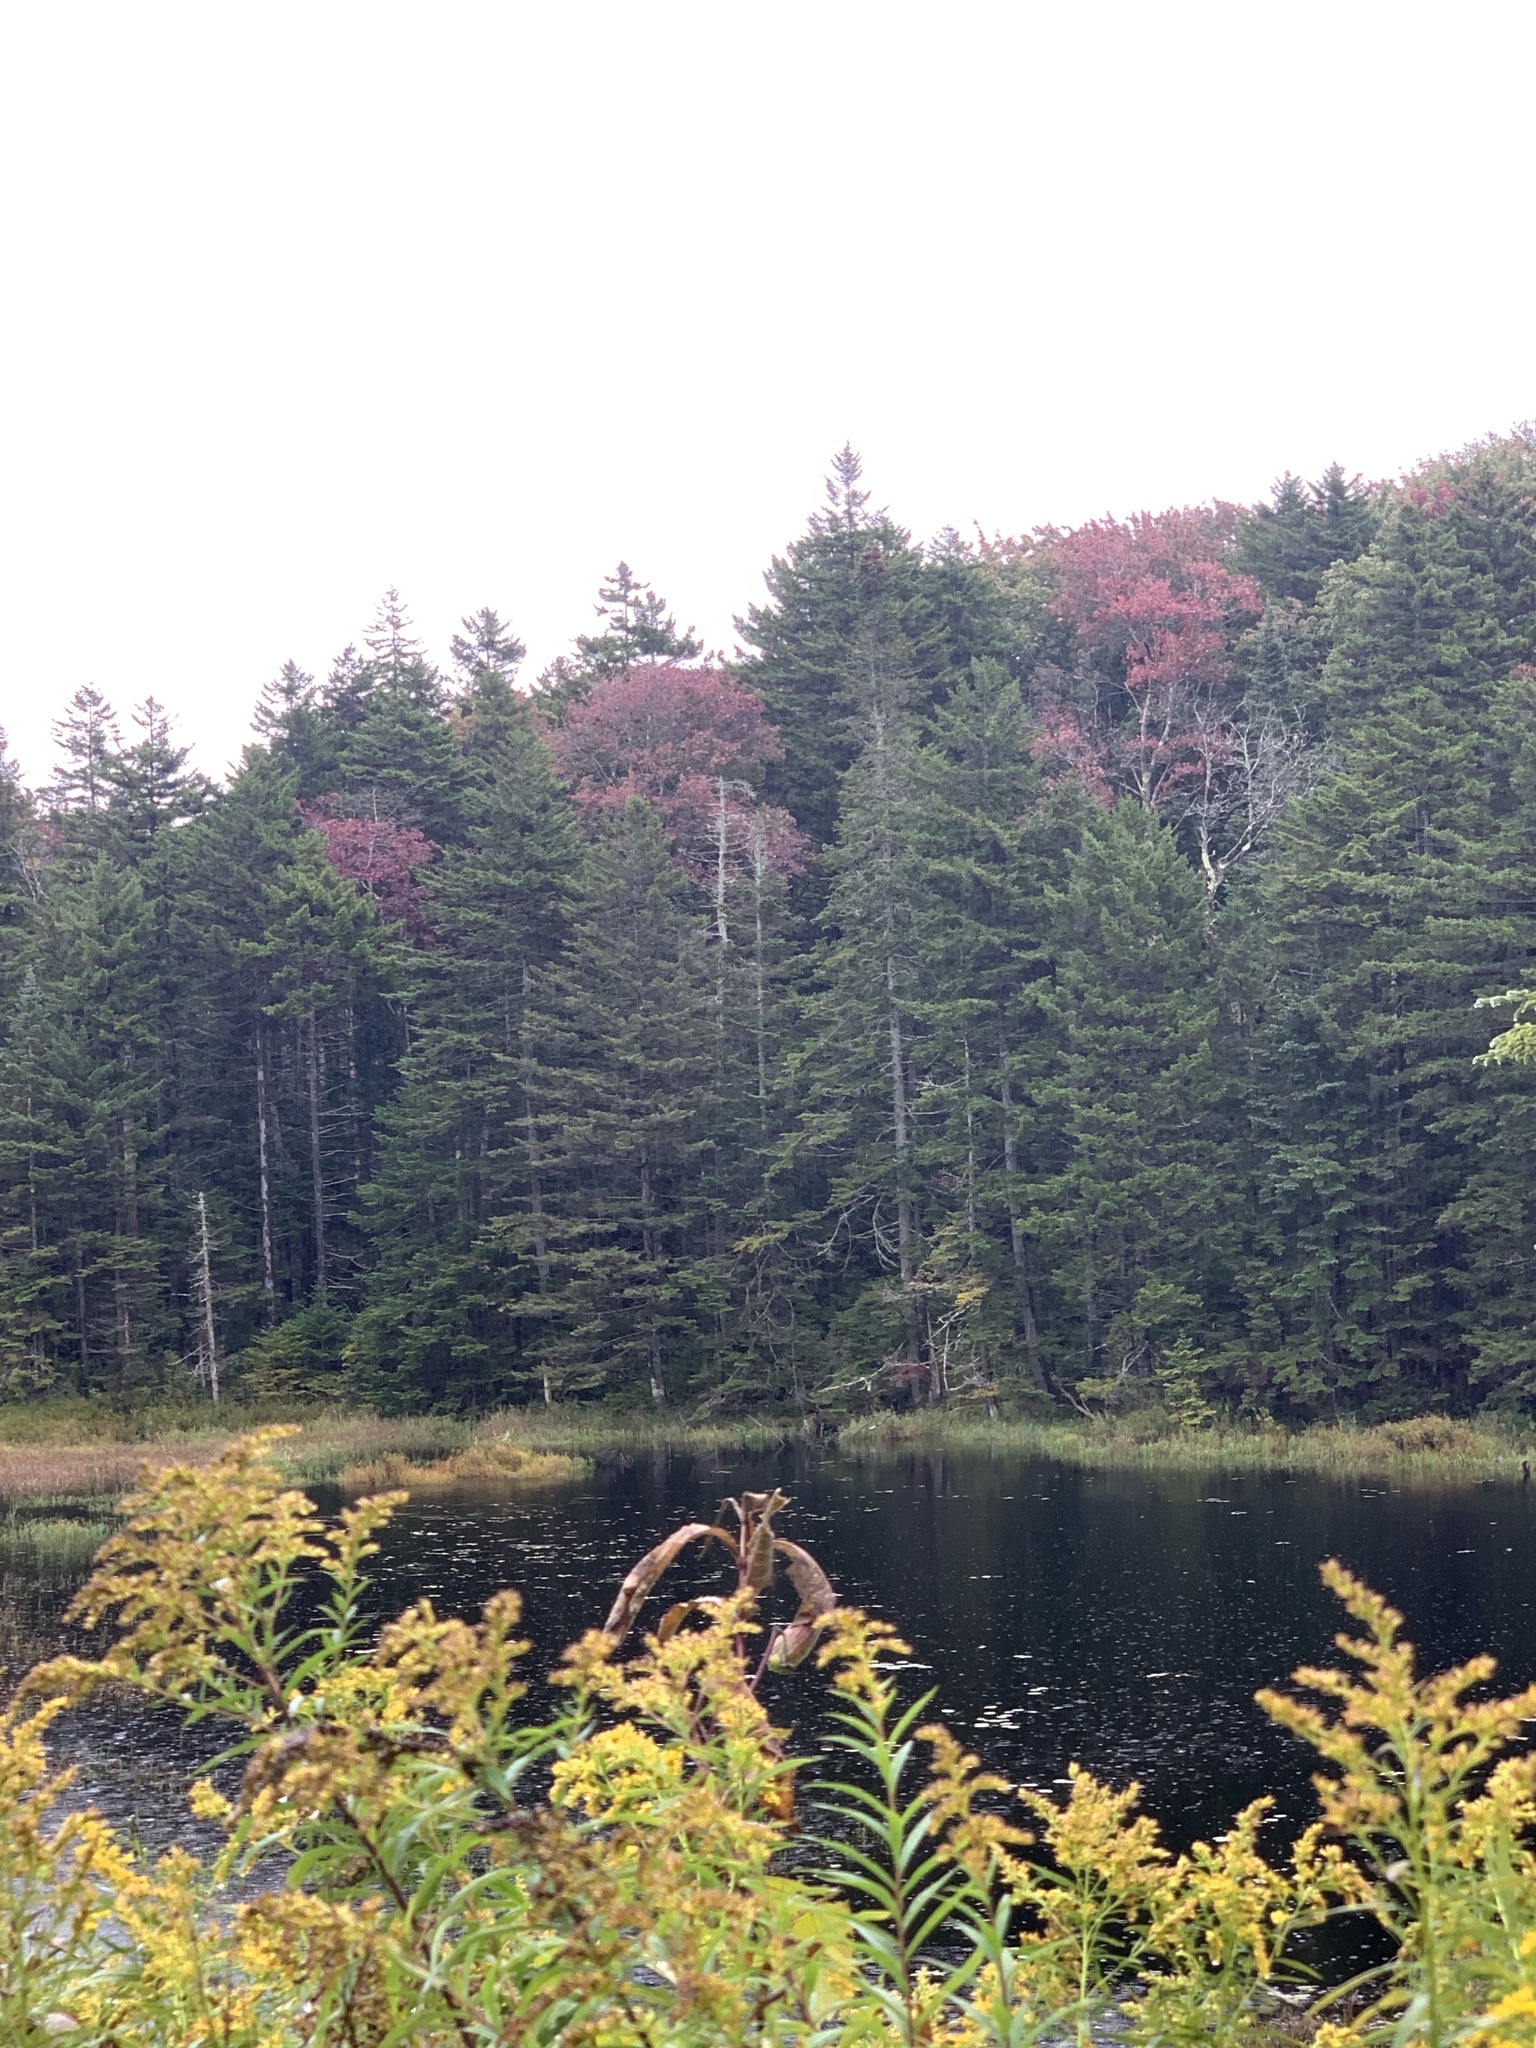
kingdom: Plantae
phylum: Tracheophyta
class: Magnoliopsida
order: Sapindales
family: Sapindaceae
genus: Acer
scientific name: Acer rubrum
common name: Red maple
